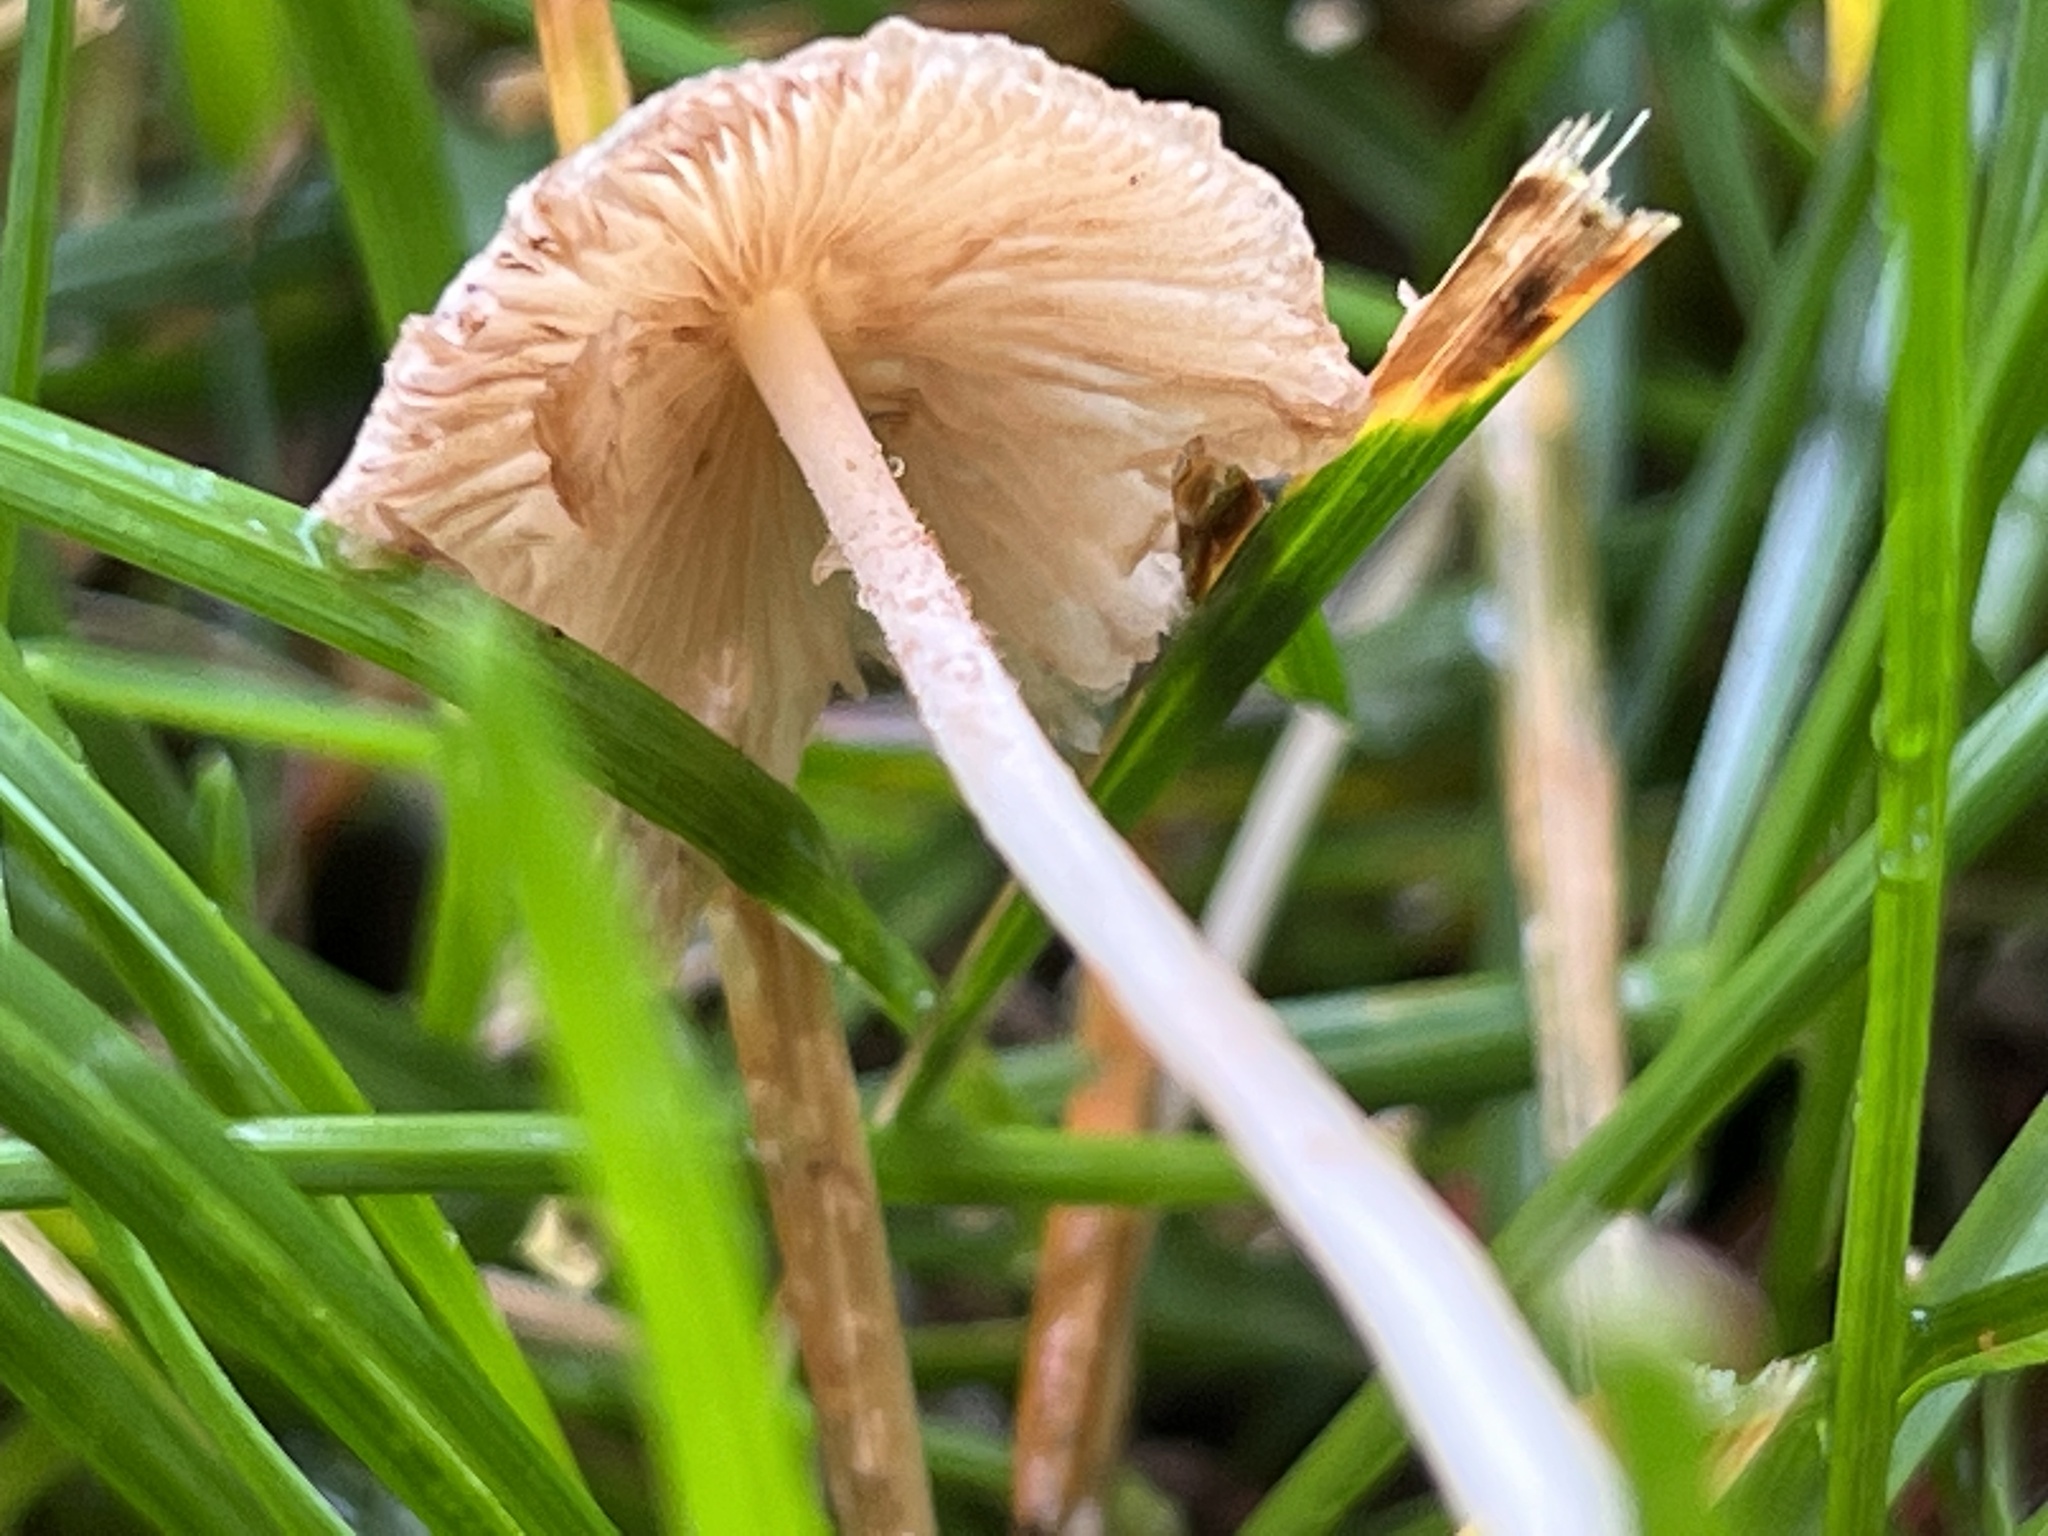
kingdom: Fungi
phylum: Basidiomycota
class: Agaricomycetes
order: Agaricales
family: Bolbitiaceae
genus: Conocybe
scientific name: Conocybe apala
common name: Milky conecap
